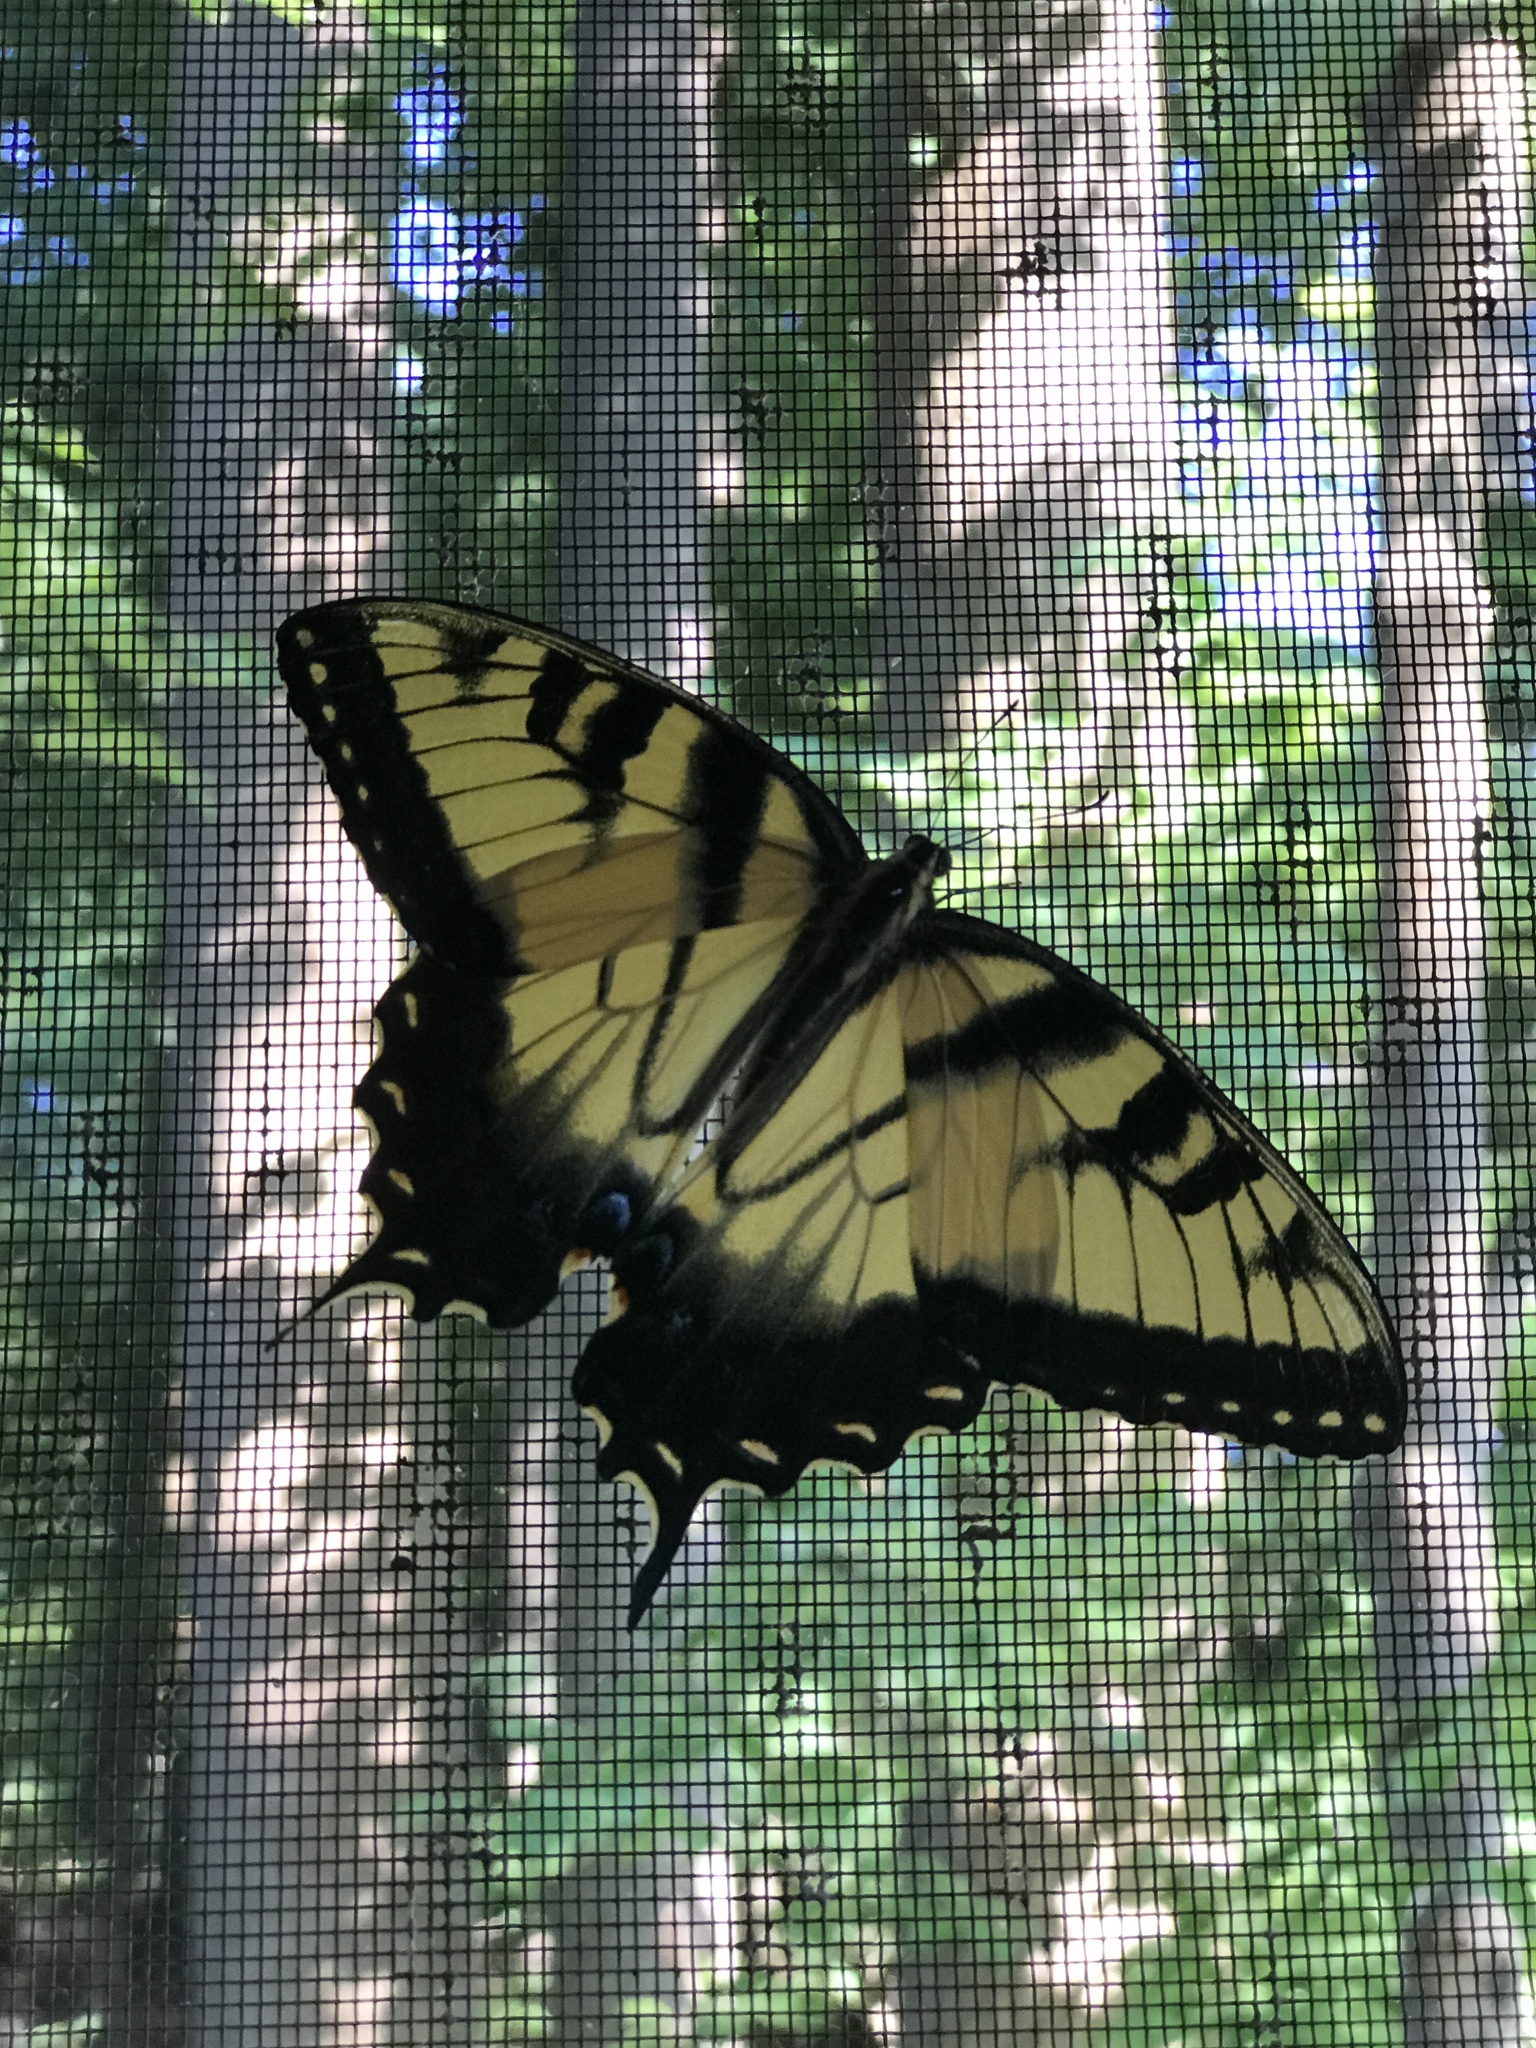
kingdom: Animalia
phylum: Arthropoda
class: Insecta
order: Lepidoptera
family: Papilionidae
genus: Papilio
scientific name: Papilio glaucus
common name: Tiger swallowtail
